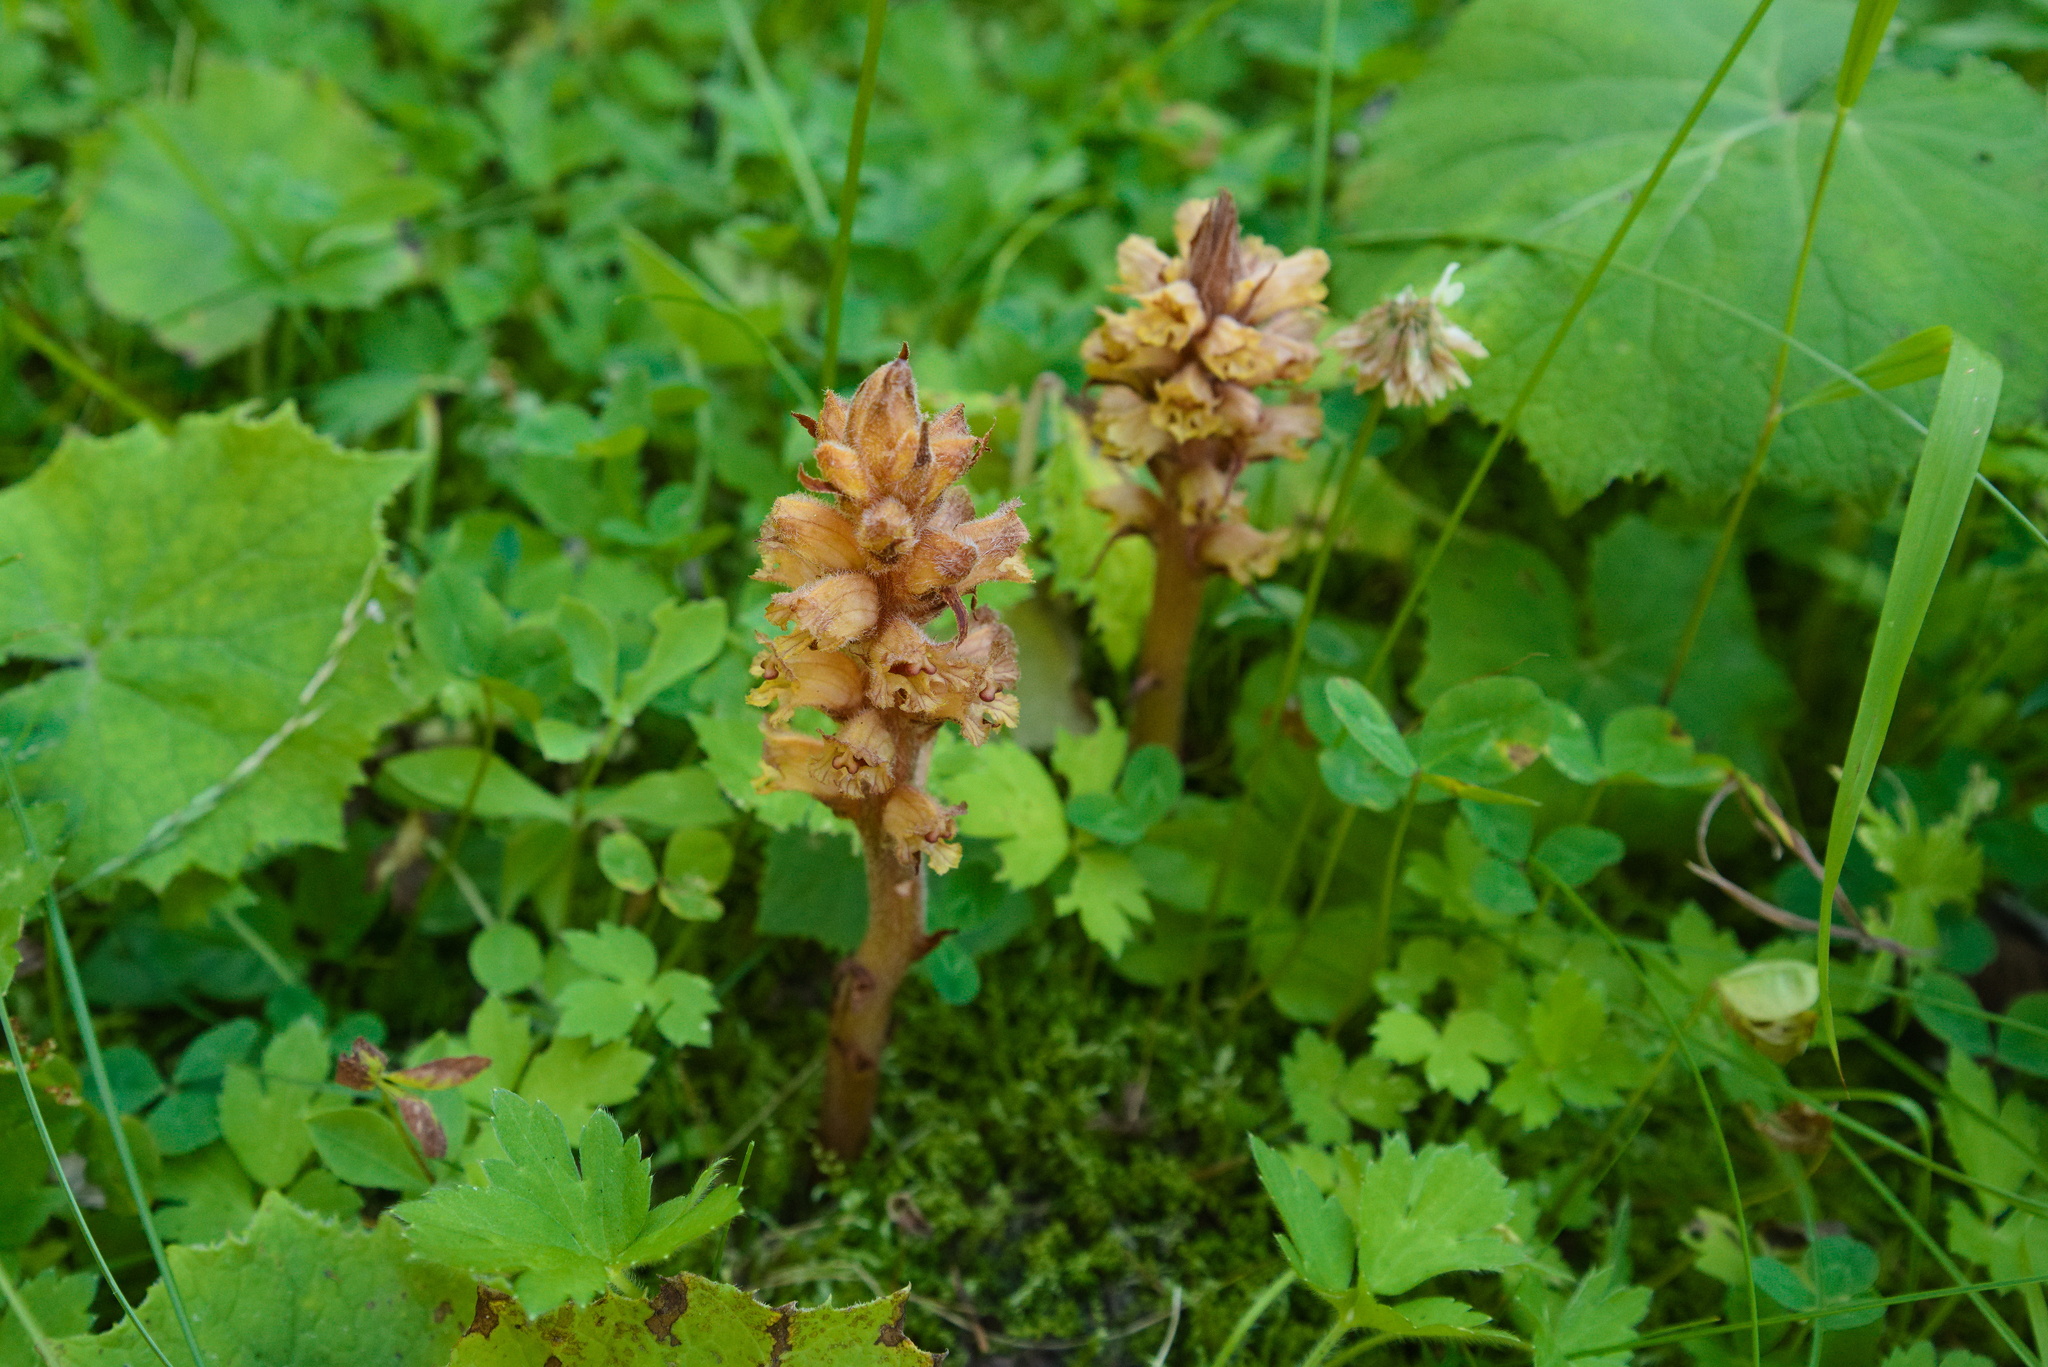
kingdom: Plantae
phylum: Tracheophyta
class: Magnoliopsida
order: Lamiales
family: Orobanchaceae
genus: Orobanche
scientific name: Orobanche flava
